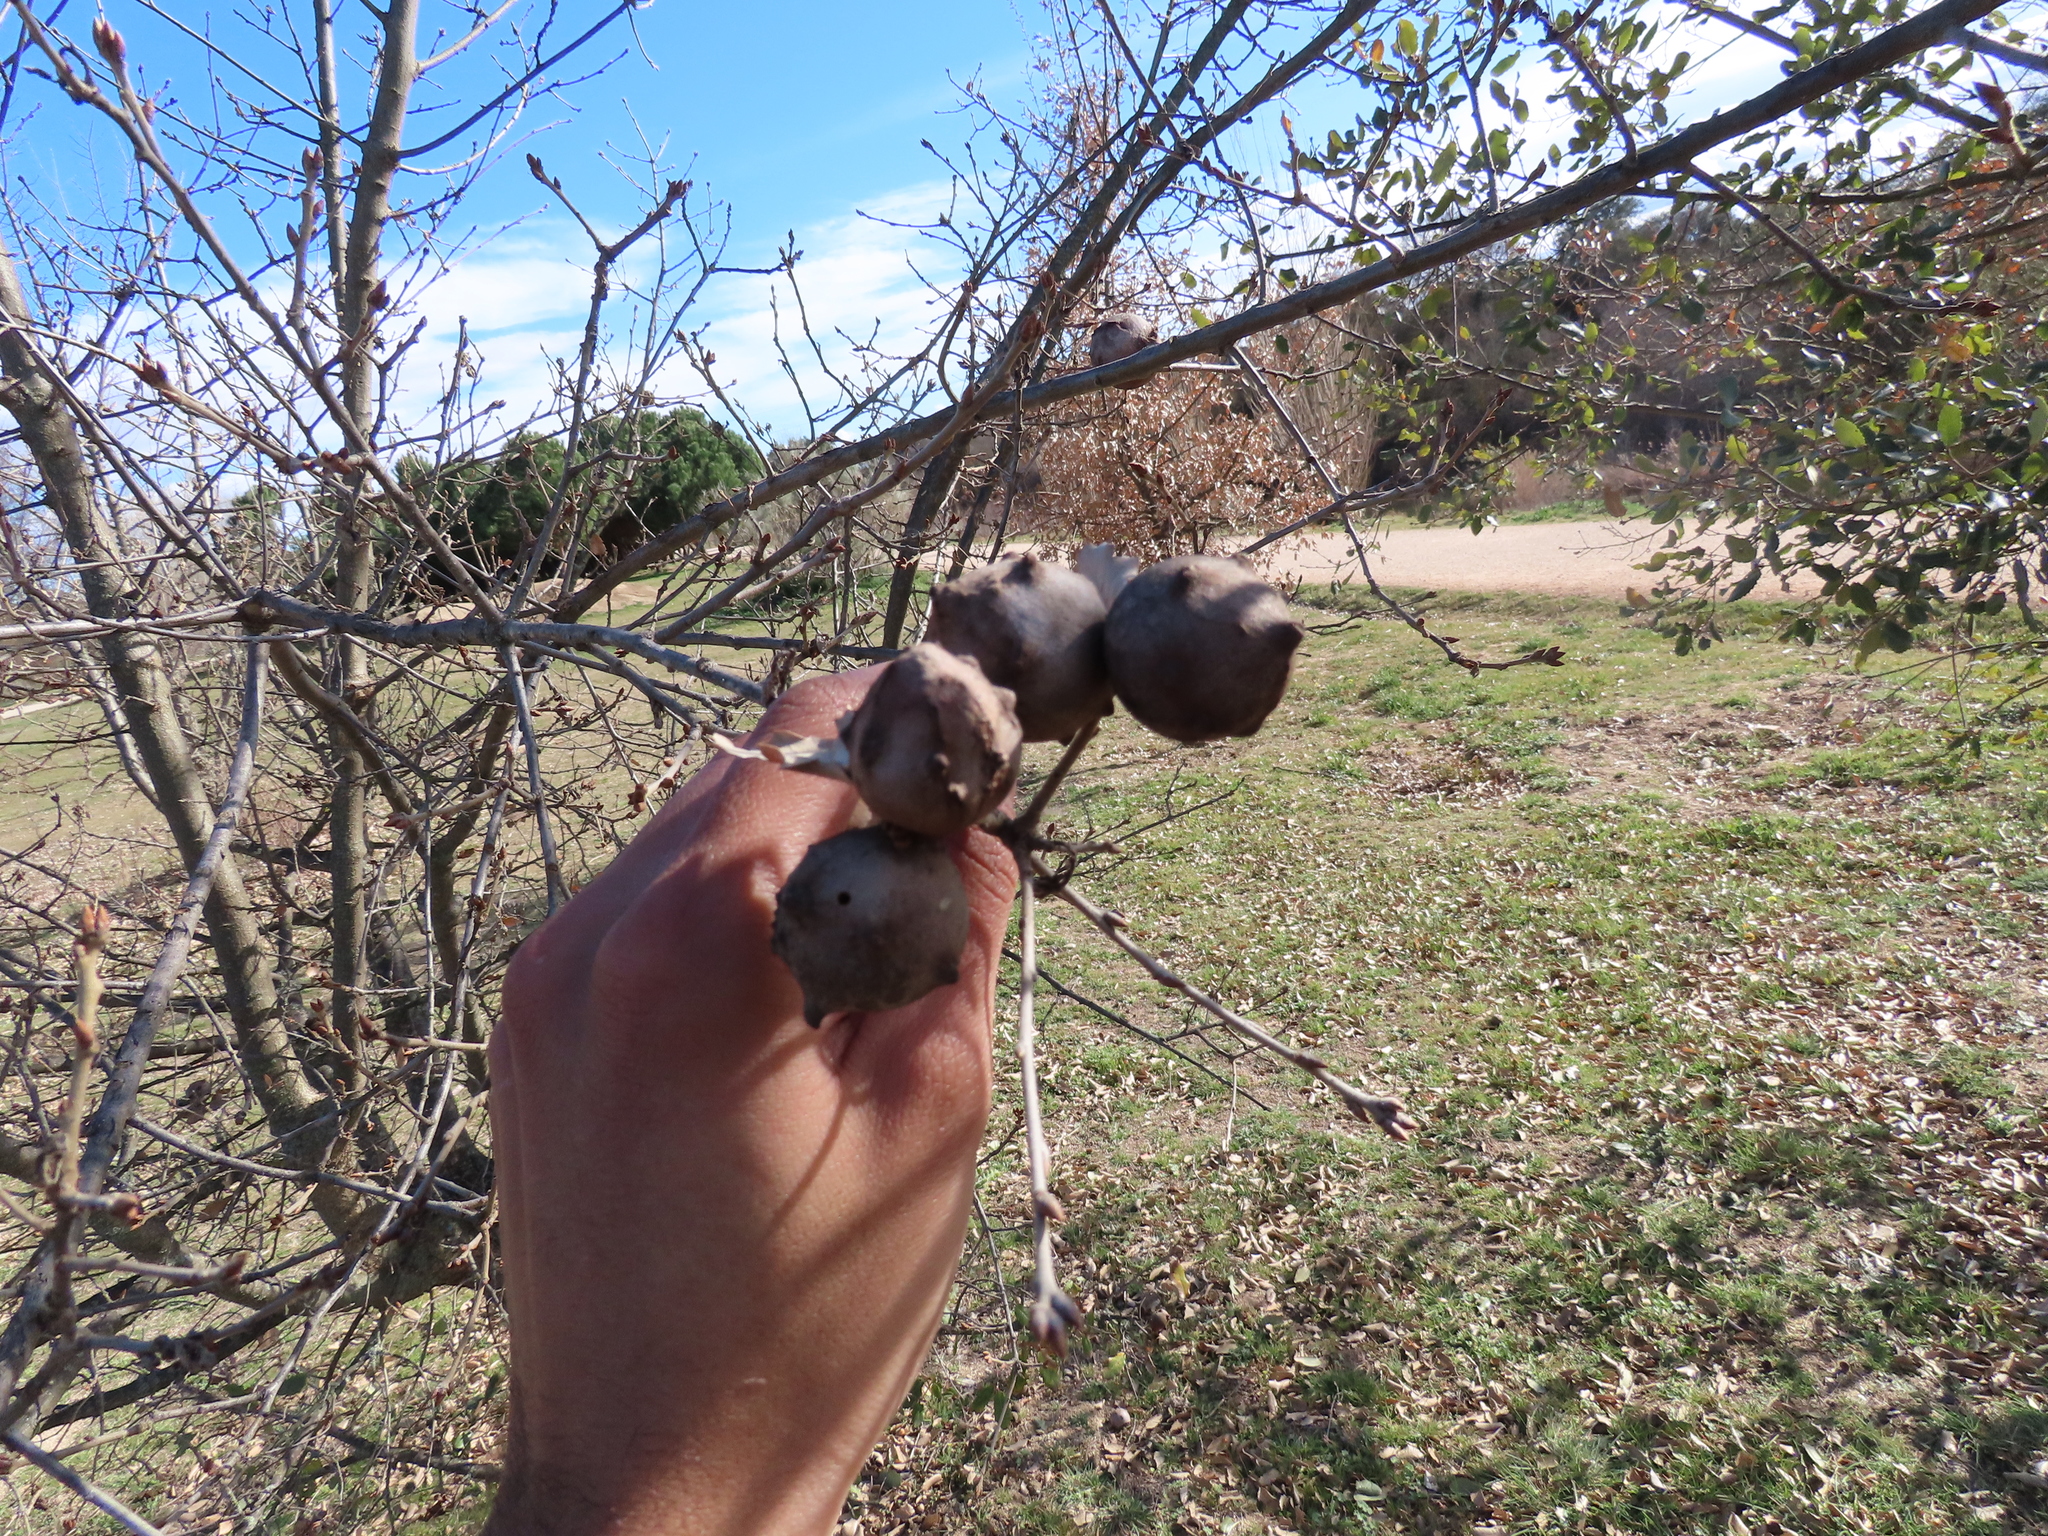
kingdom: Animalia
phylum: Arthropoda
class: Insecta
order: Hymenoptera
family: Cynipidae
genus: Andricus
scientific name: Andricus quercustozae
